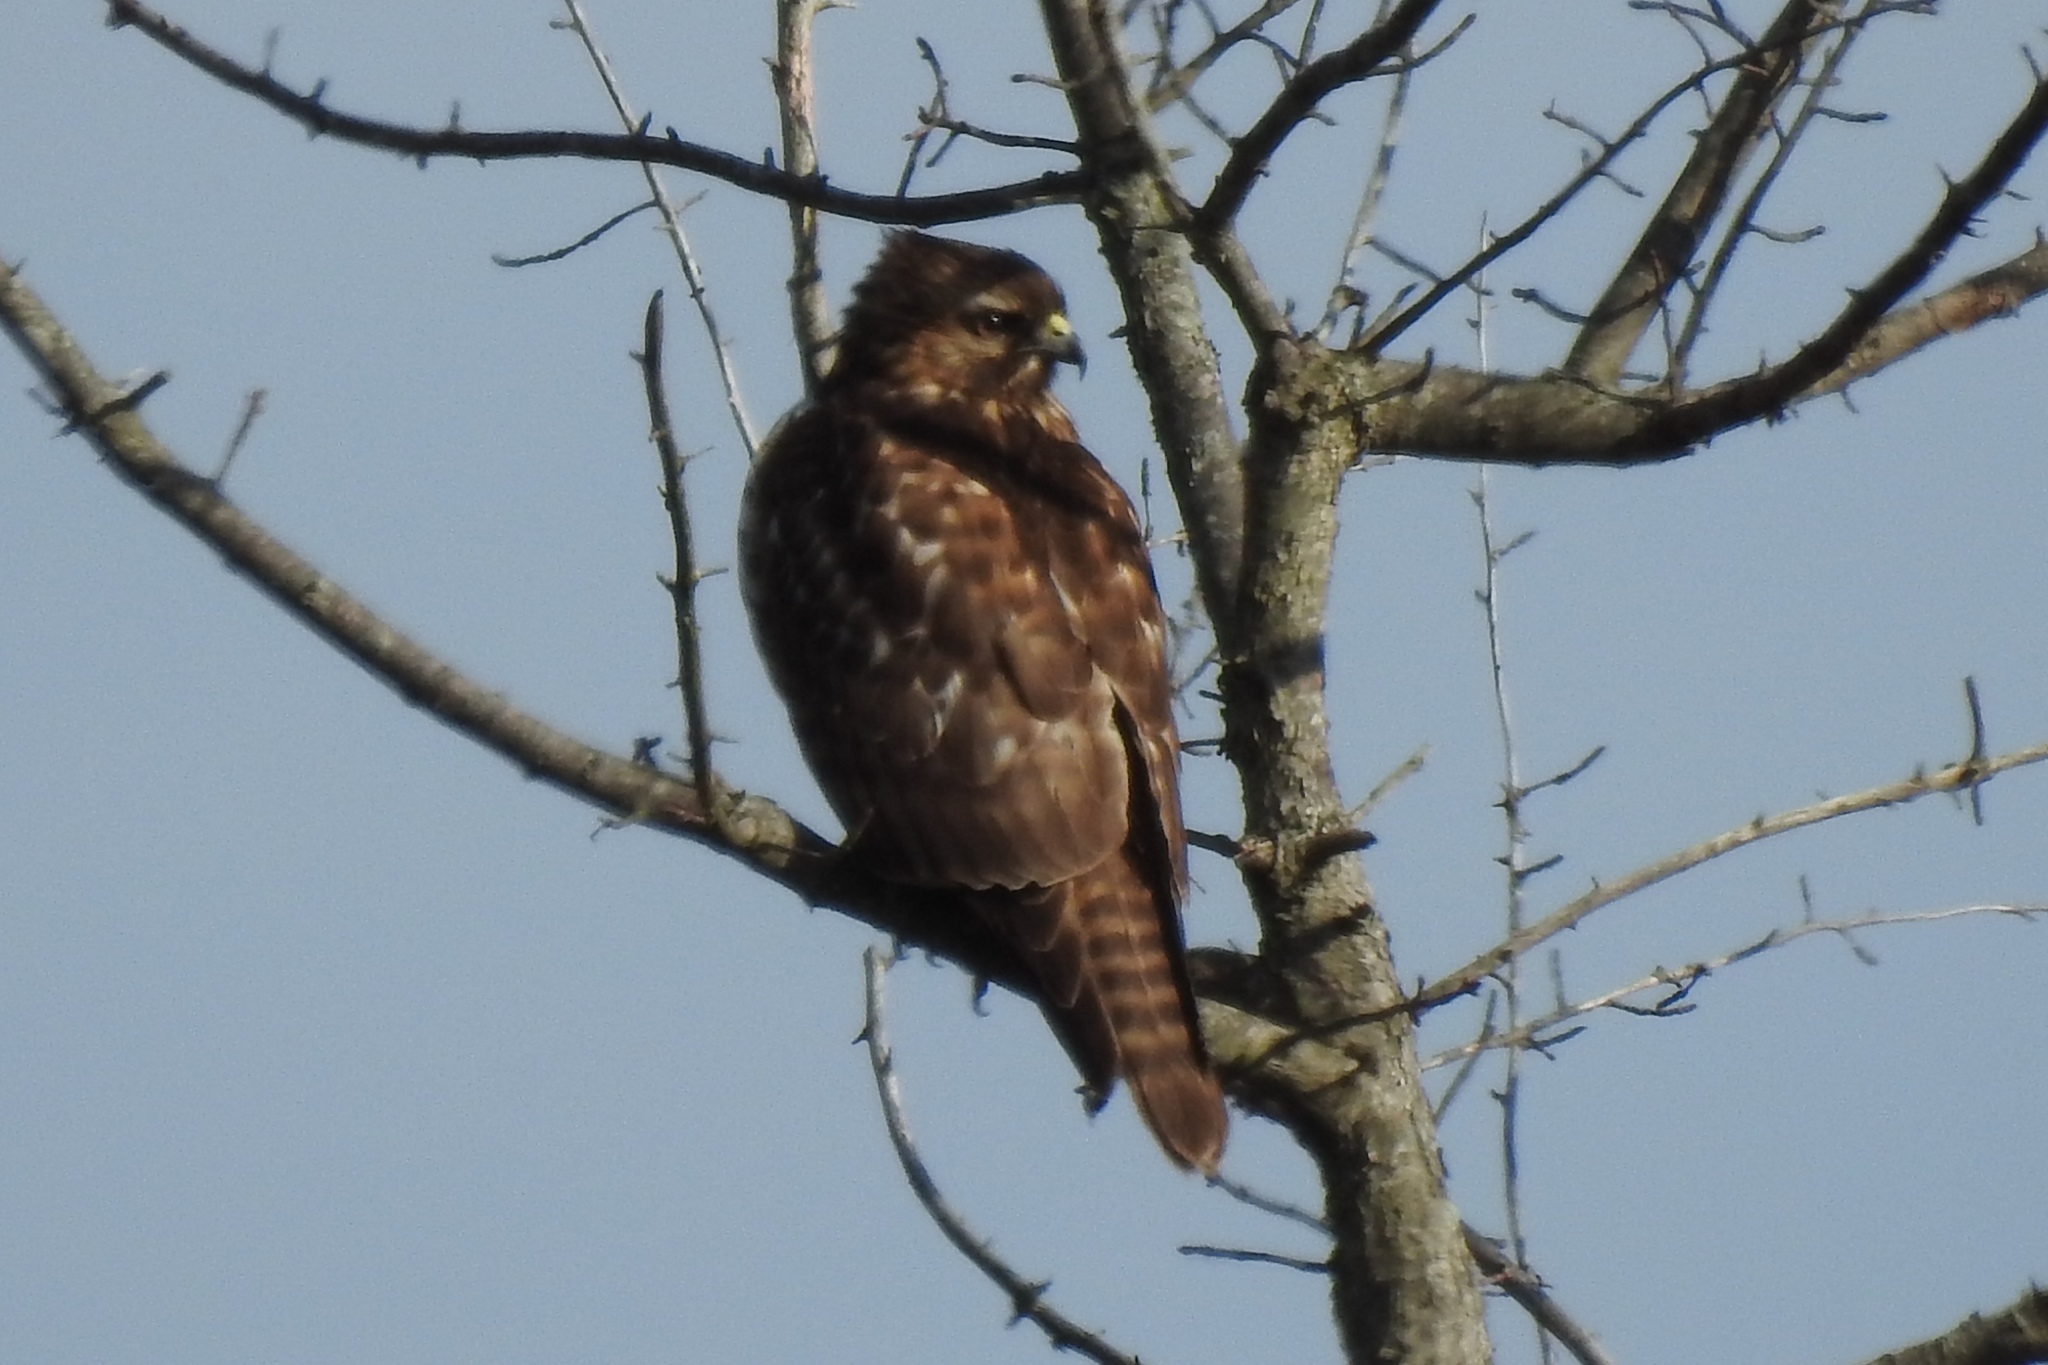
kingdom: Animalia
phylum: Chordata
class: Aves
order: Accipitriformes
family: Accipitridae
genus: Buteo
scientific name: Buteo lineatus
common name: Red-shouldered hawk
